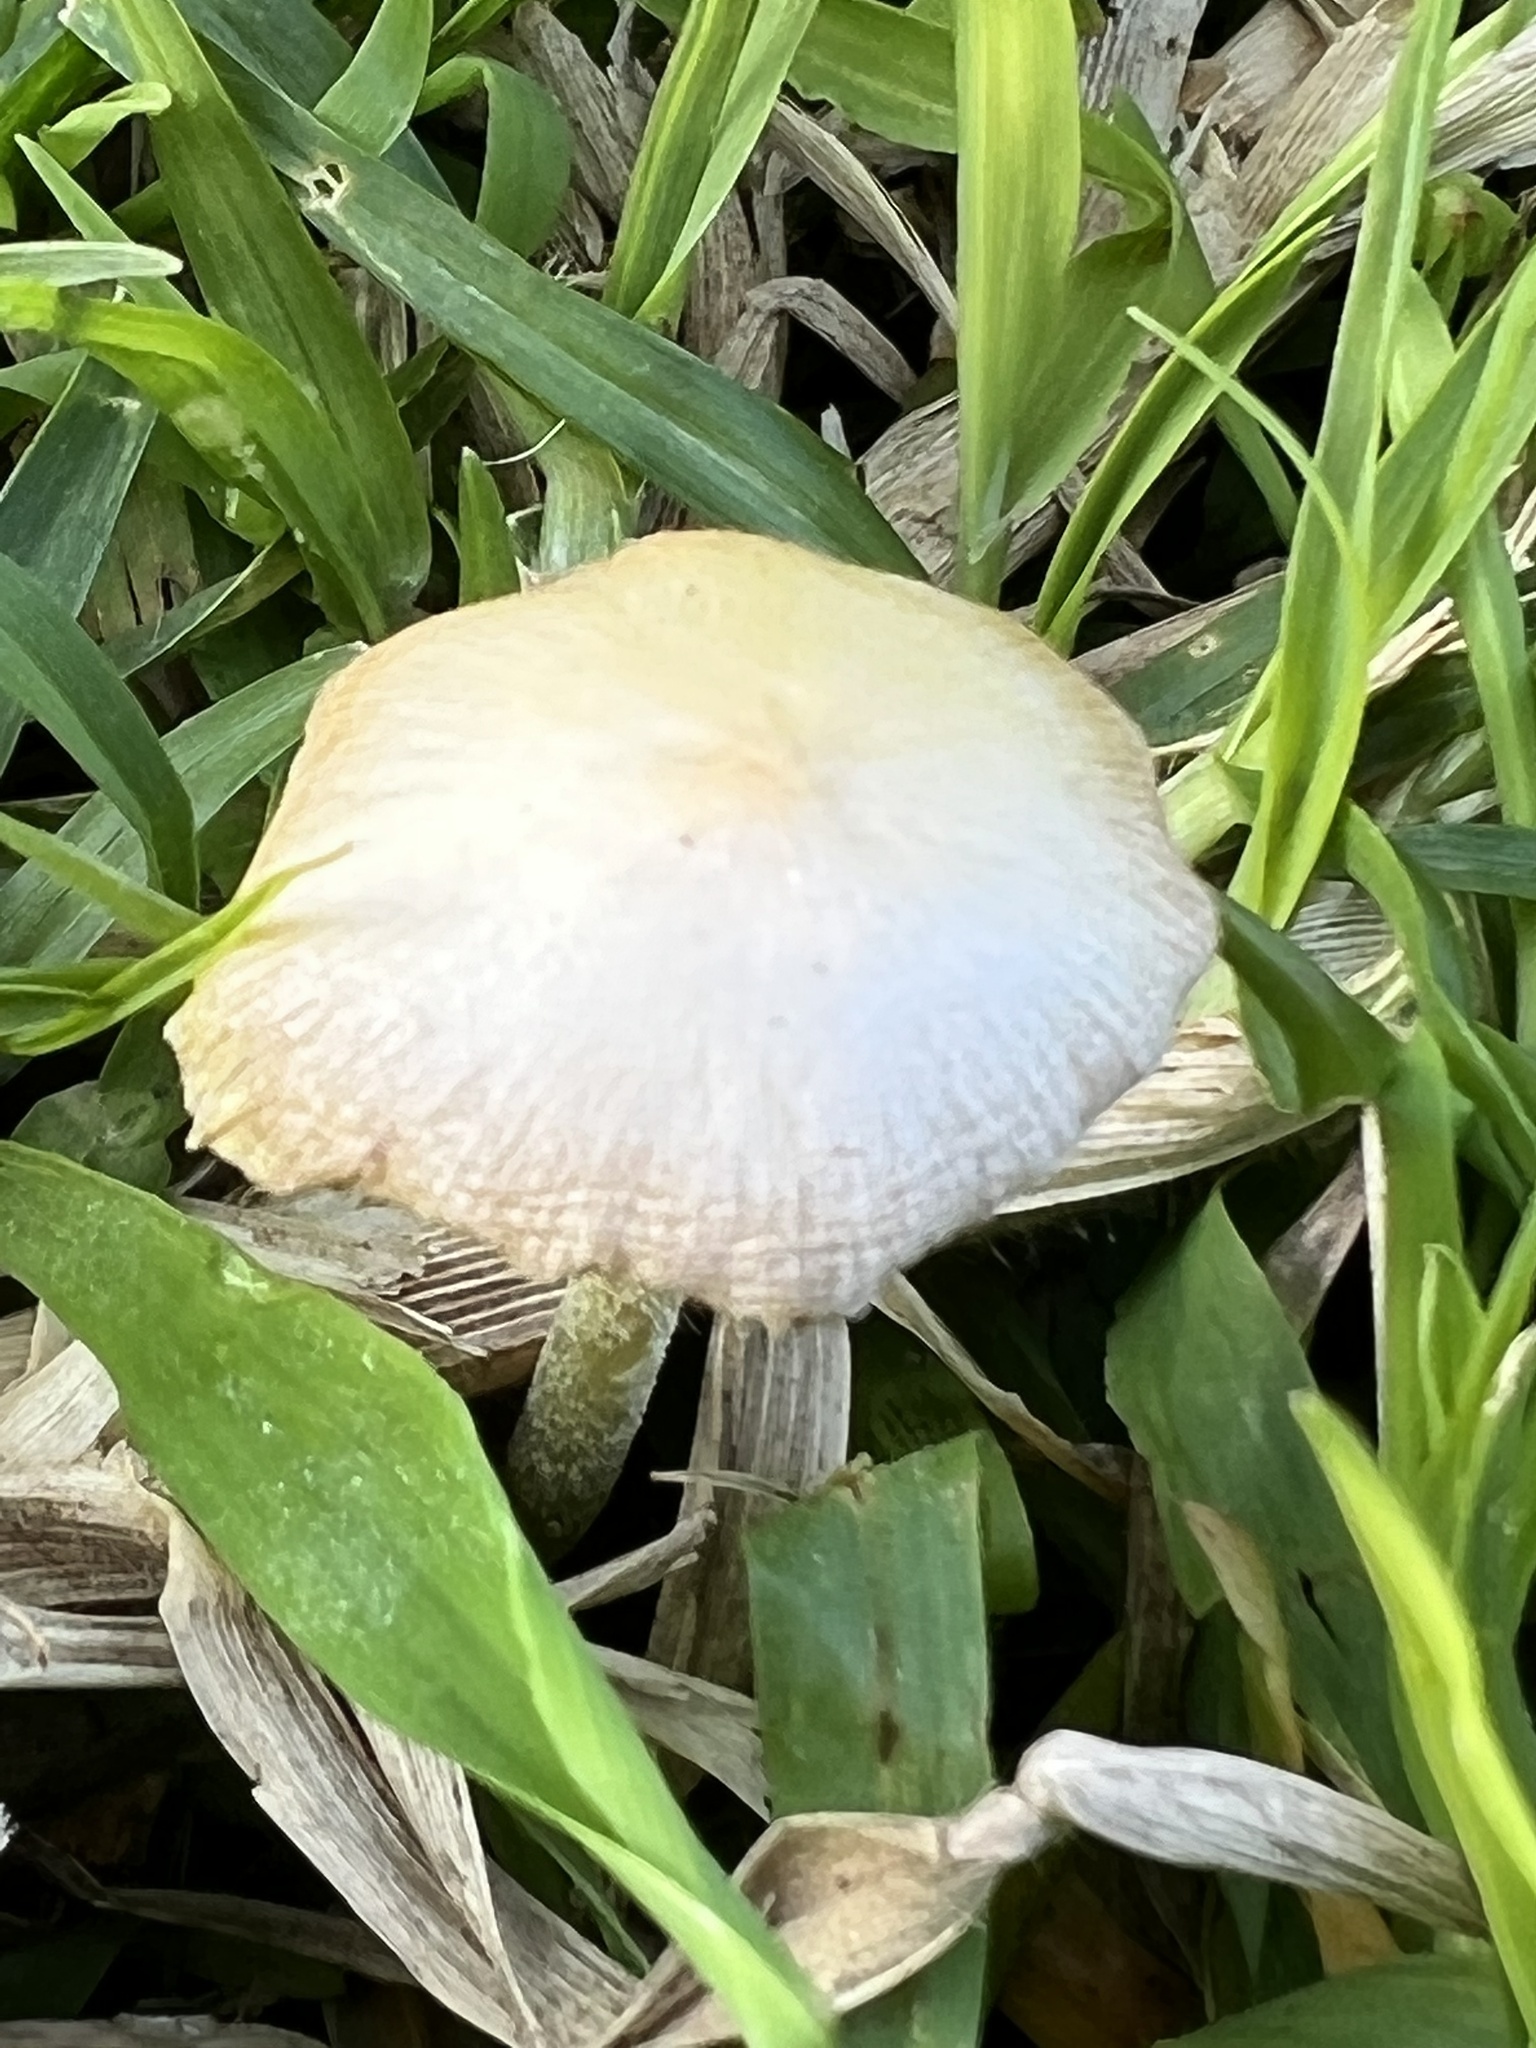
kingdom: Fungi
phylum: Basidiomycota
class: Agaricomycetes
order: Agaricales
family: Bolbitiaceae
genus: Bolbitius
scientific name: Bolbitius titubans
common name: Yellow fieldcap
